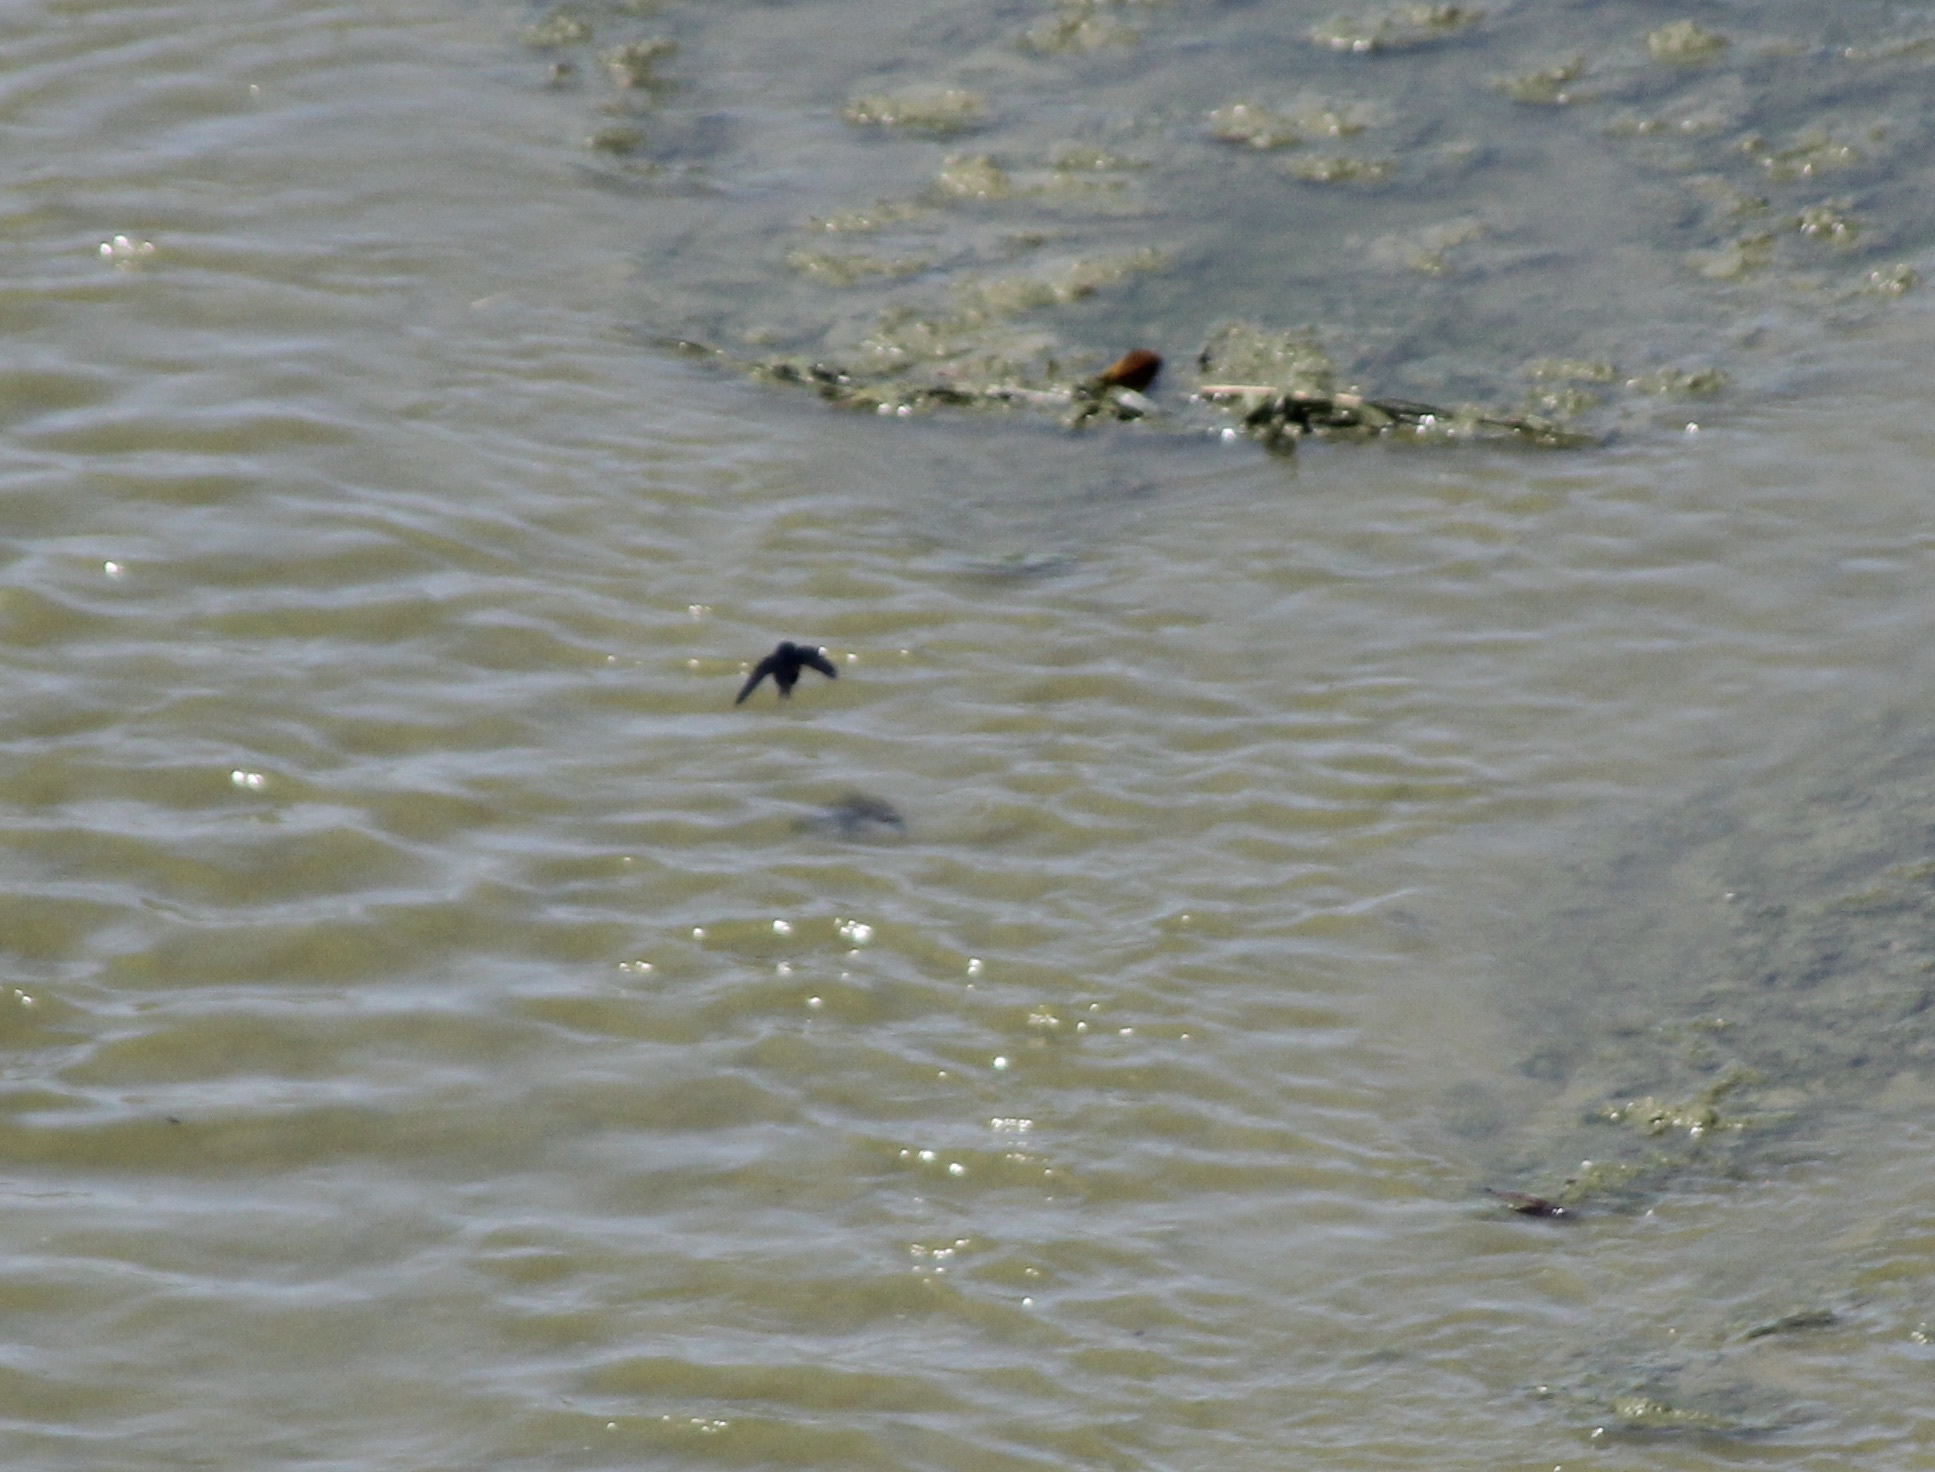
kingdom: Animalia
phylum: Chordata
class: Aves
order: Passeriformes
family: Hirundinidae
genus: Hirundo
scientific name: Hirundo rustica
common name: Barn swallow
